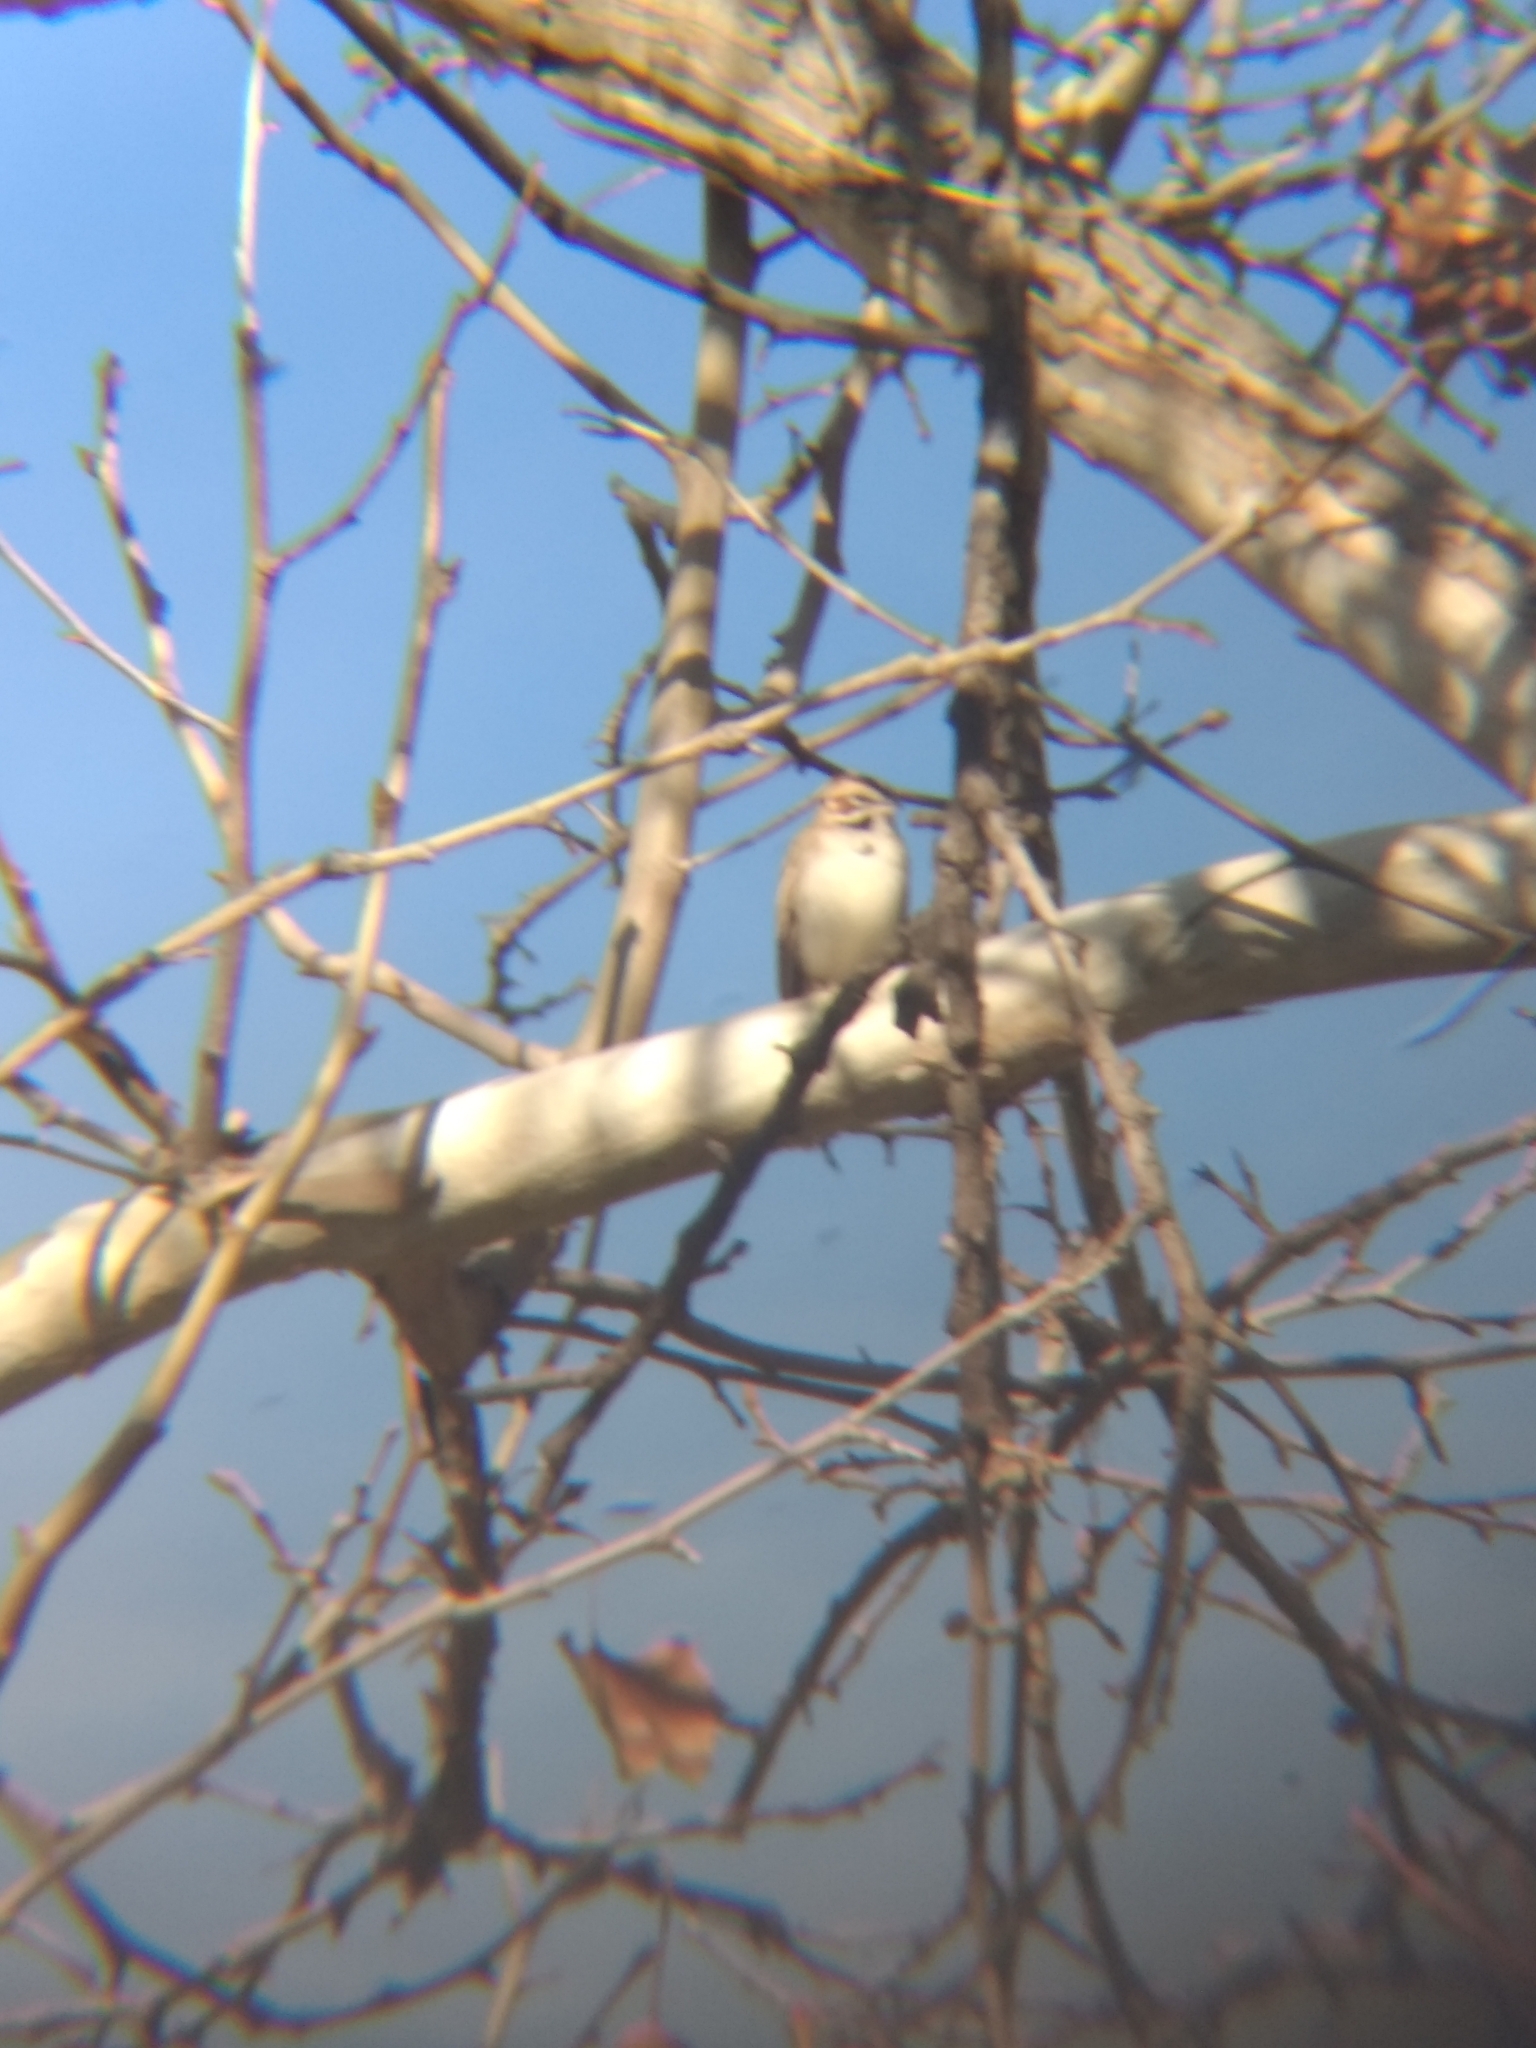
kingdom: Animalia
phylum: Chordata
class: Aves
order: Passeriformes
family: Passerellidae
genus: Chondestes
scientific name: Chondestes grammacus
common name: Lark sparrow
